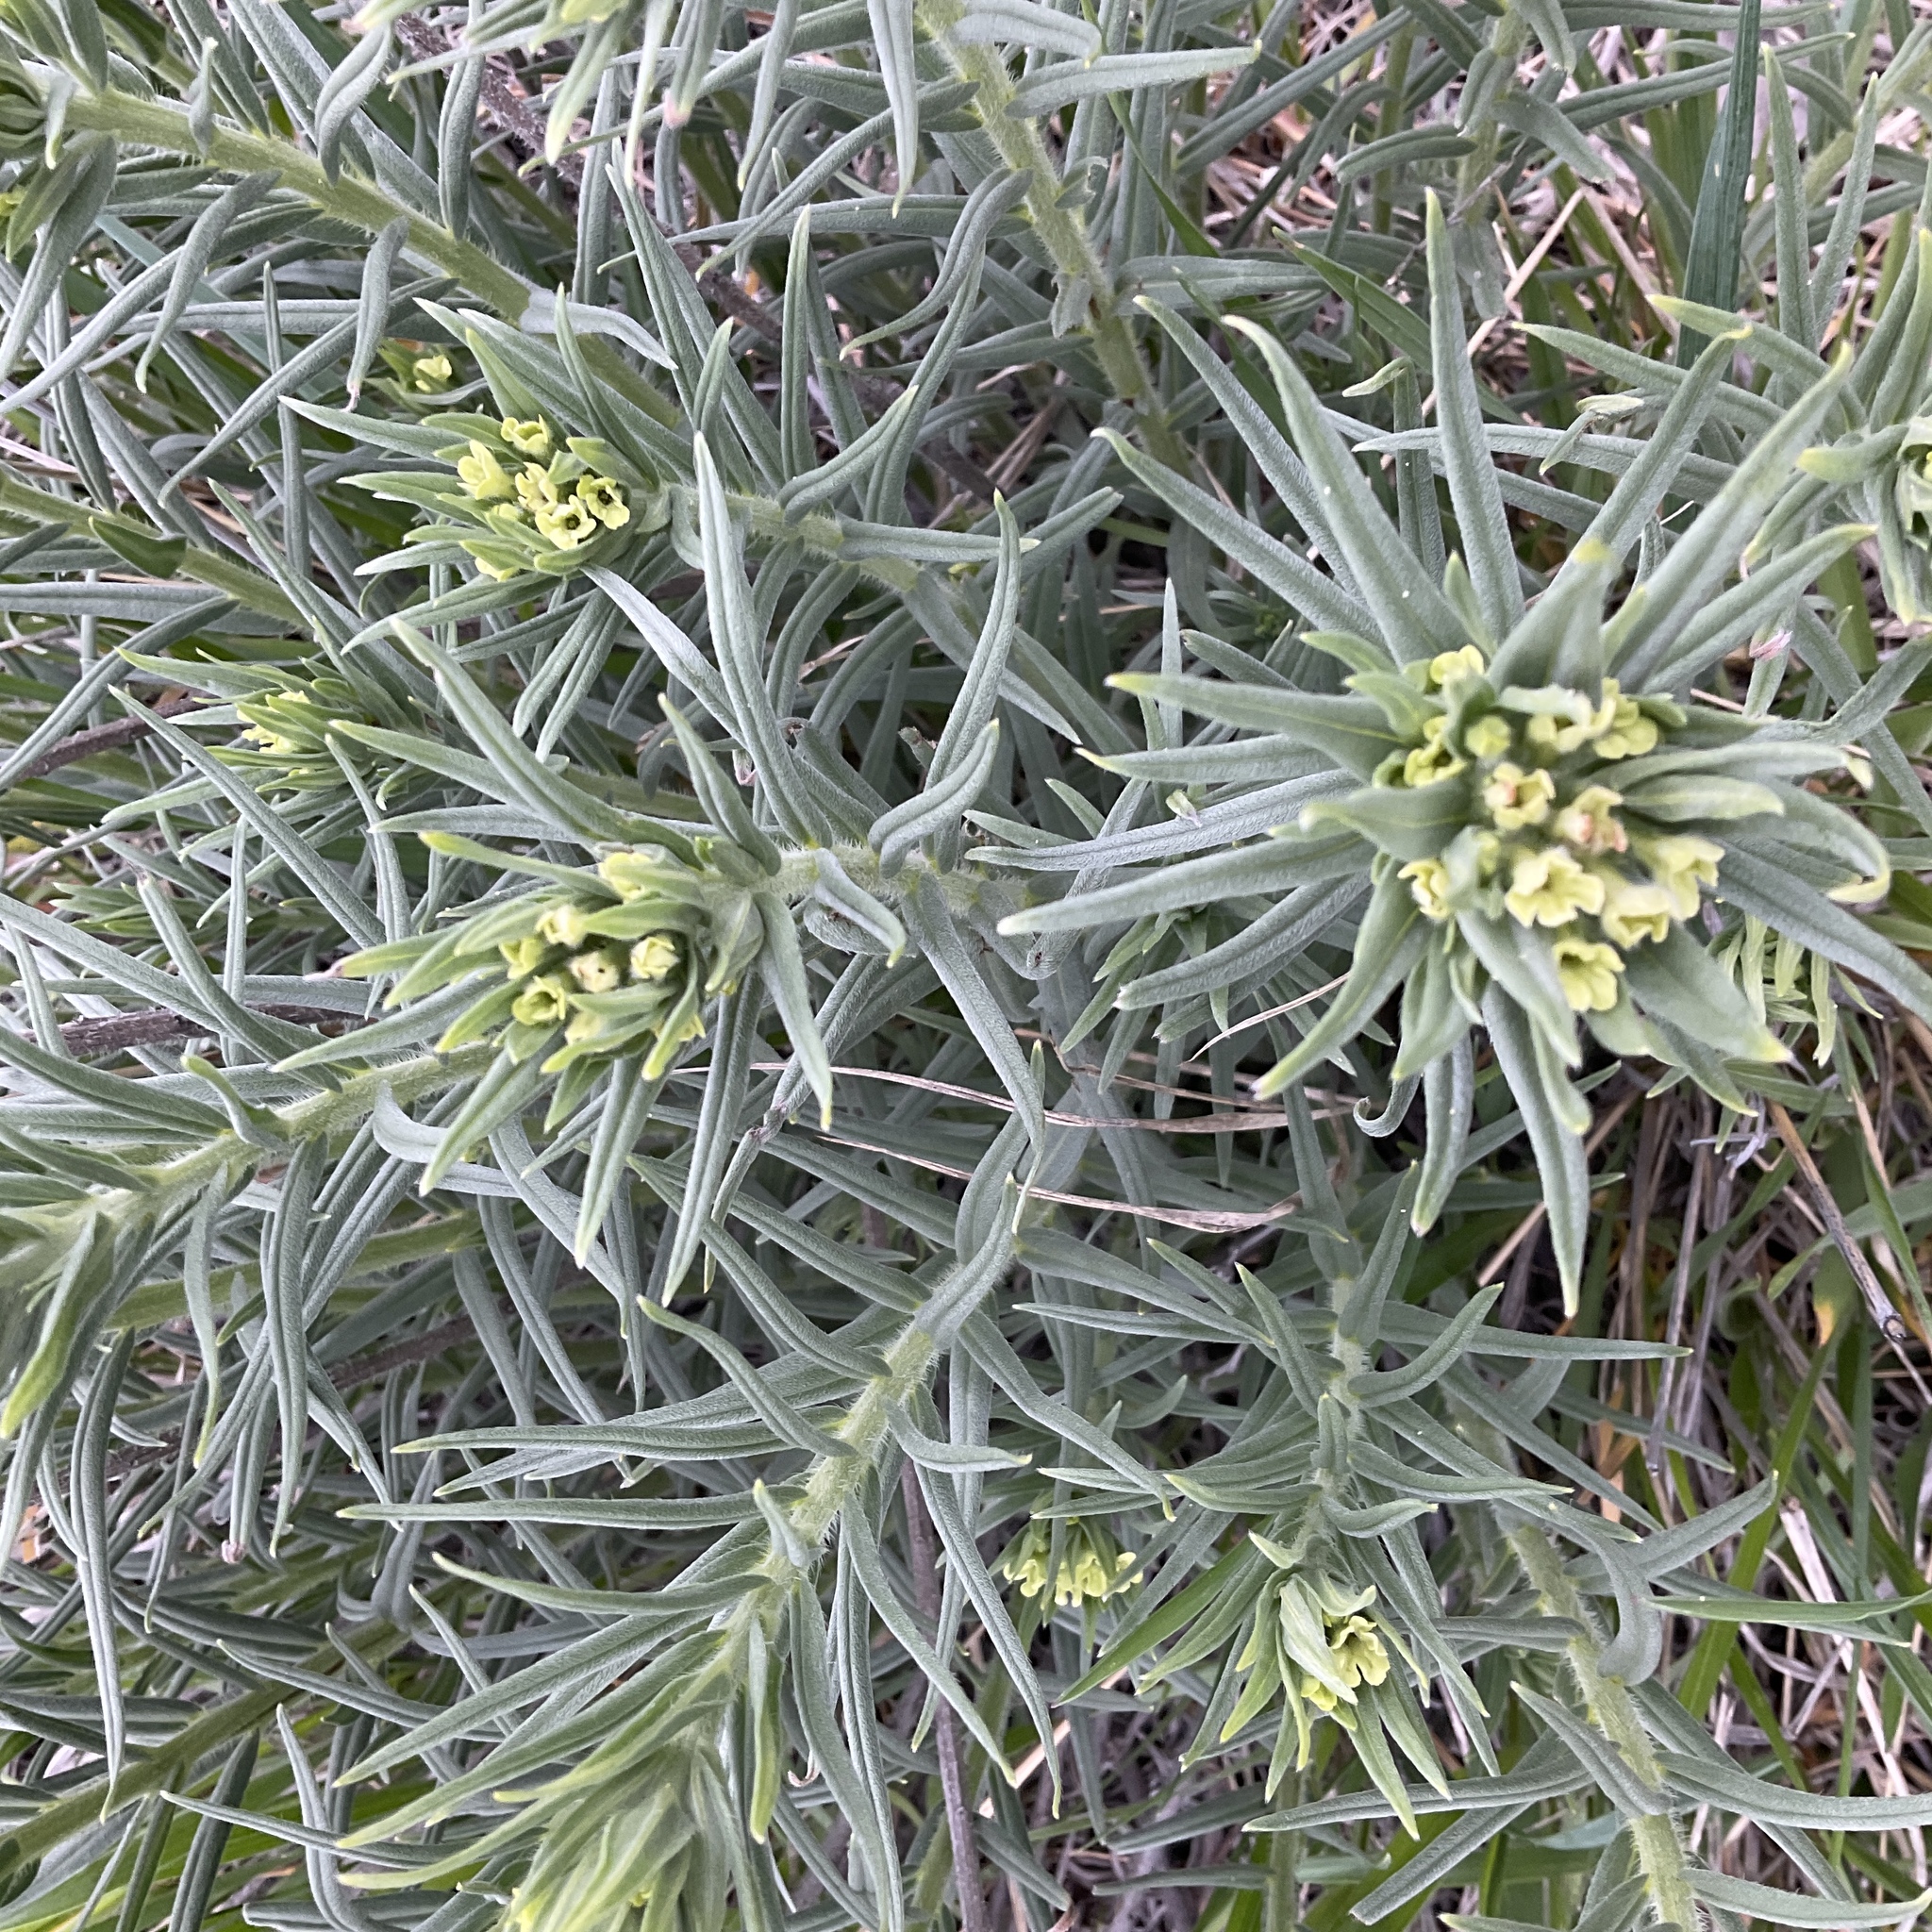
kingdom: Plantae
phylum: Tracheophyta
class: Magnoliopsida
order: Boraginales
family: Boraginaceae
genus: Lithospermum
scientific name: Lithospermum ruderale
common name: Western gromwell
